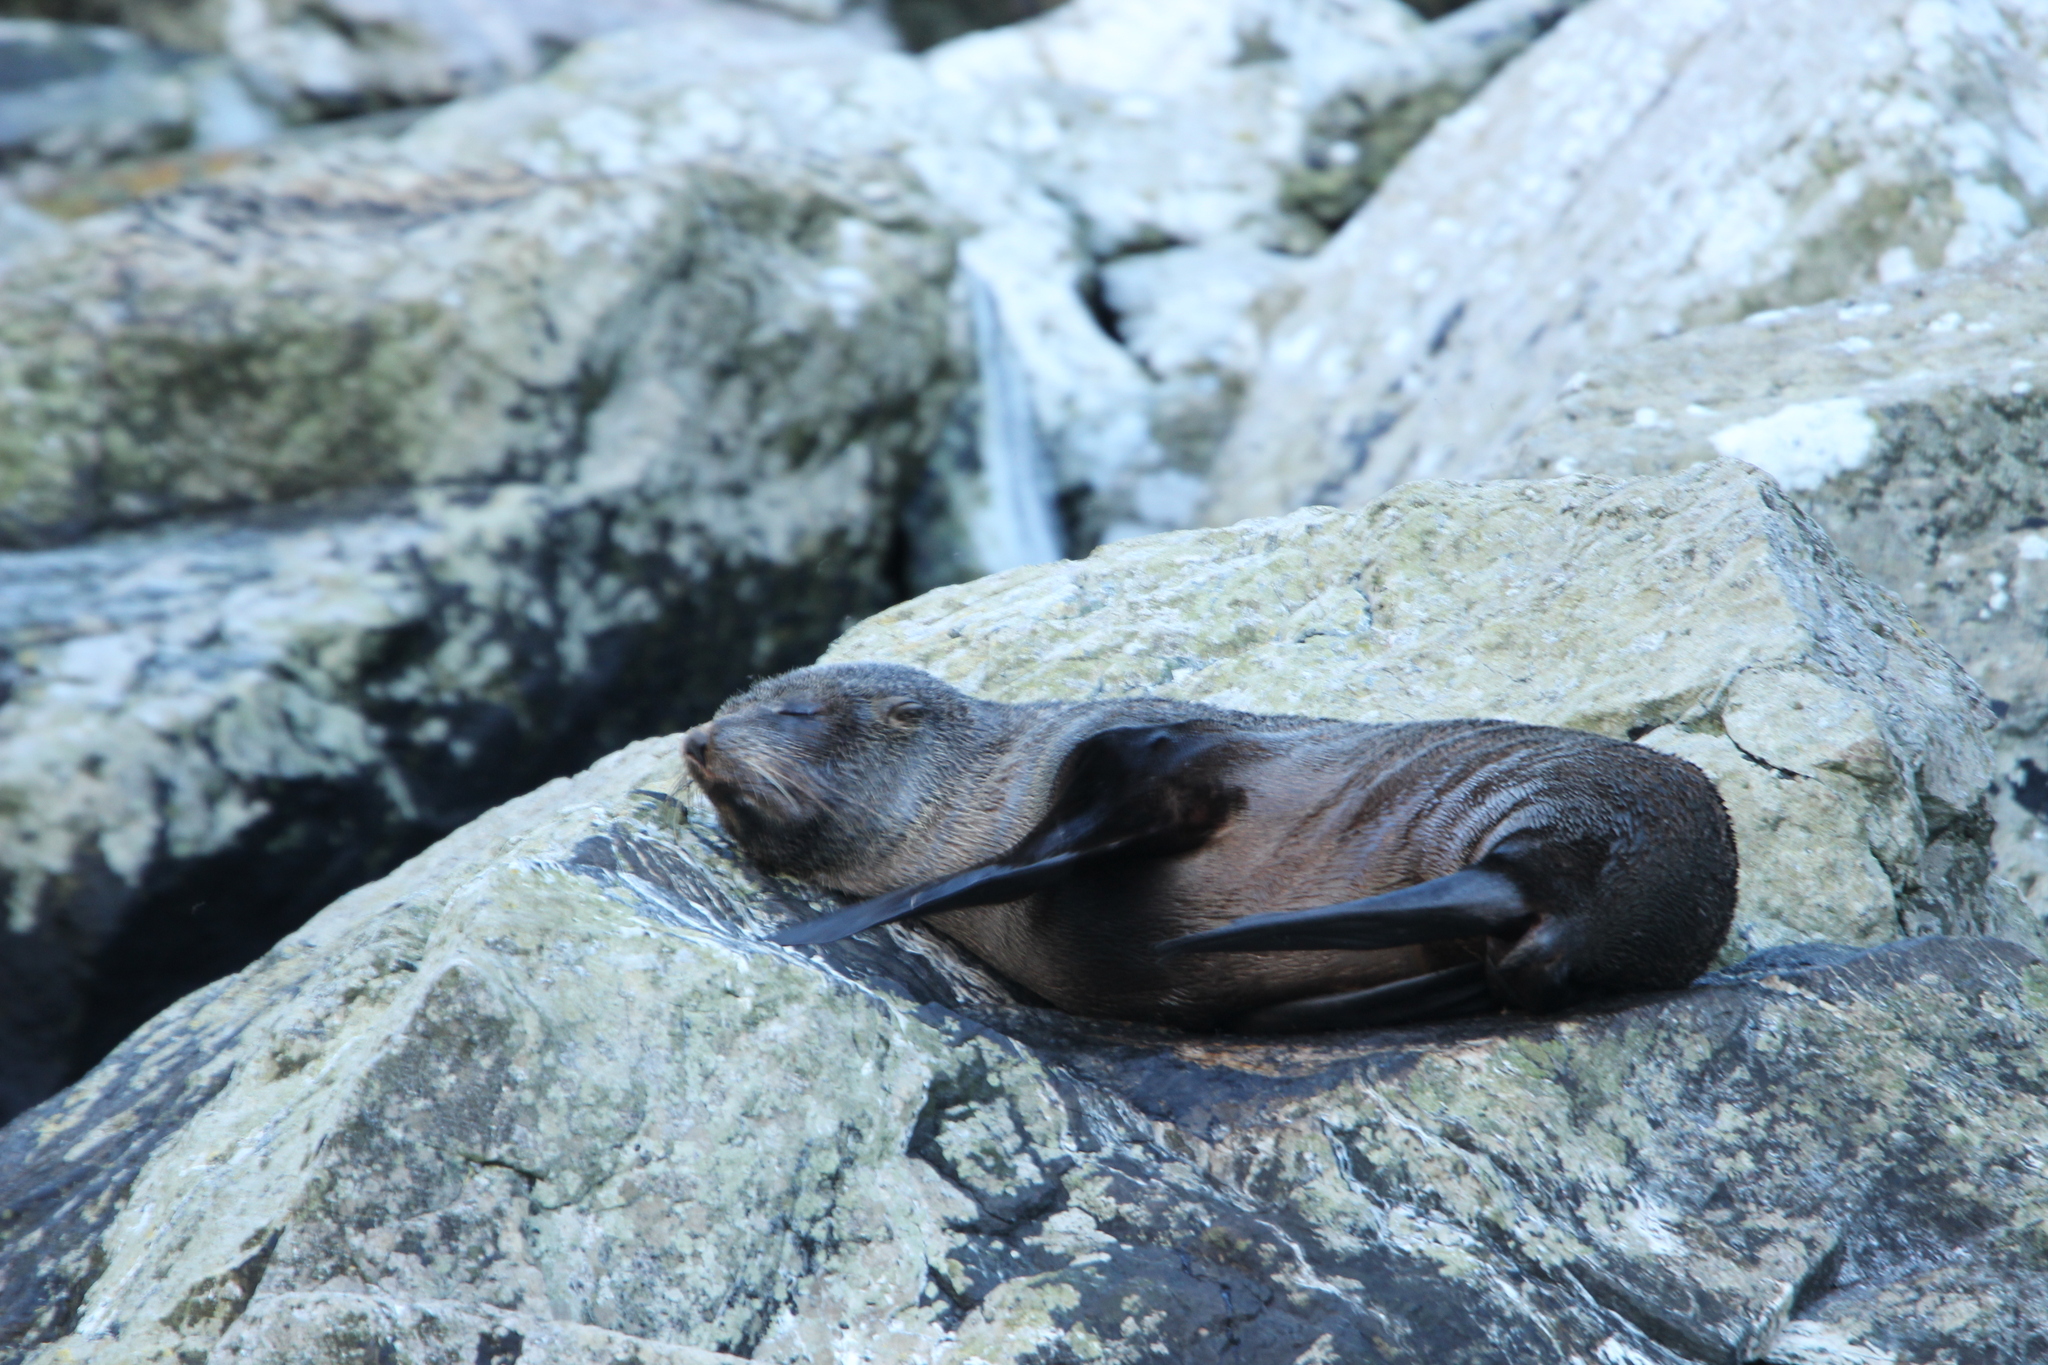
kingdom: Animalia
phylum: Chordata
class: Mammalia
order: Carnivora
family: Otariidae
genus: Arctocephalus
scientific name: Arctocephalus forsteri
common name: New zealand fur seal
